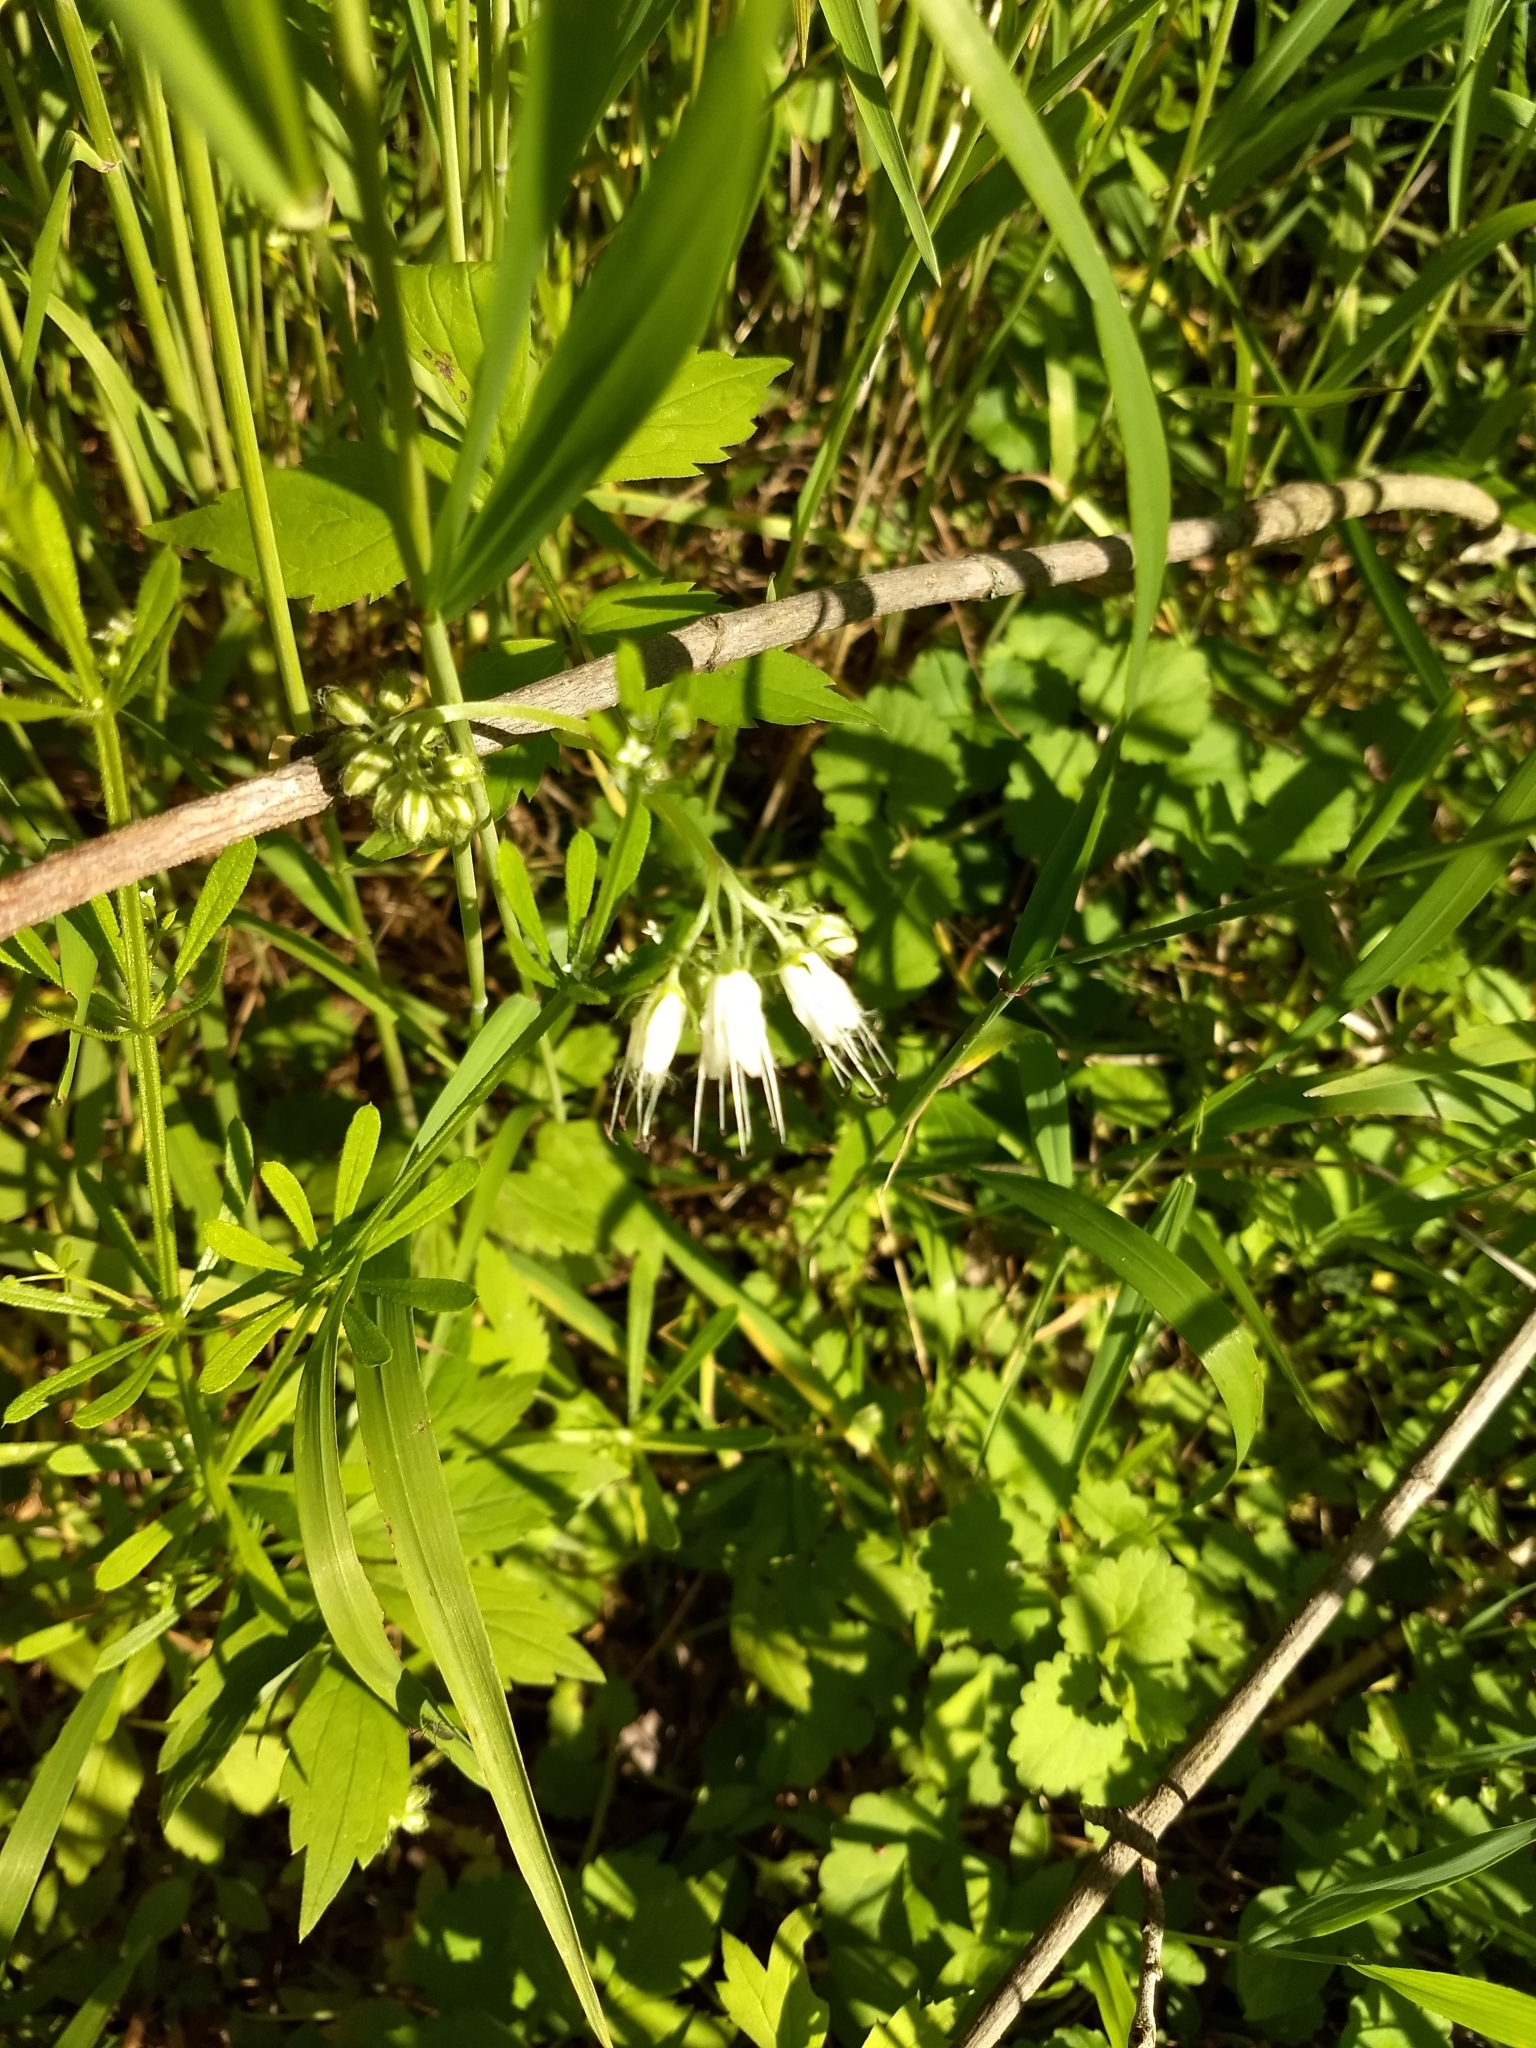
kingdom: Plantae
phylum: Tracheophyta
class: Magnoliopsida
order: Boraginales
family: Hydrophyllaceae
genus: Hydrophyllum
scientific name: Hydrophyllum virginianum
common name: Virginia waterleaf
